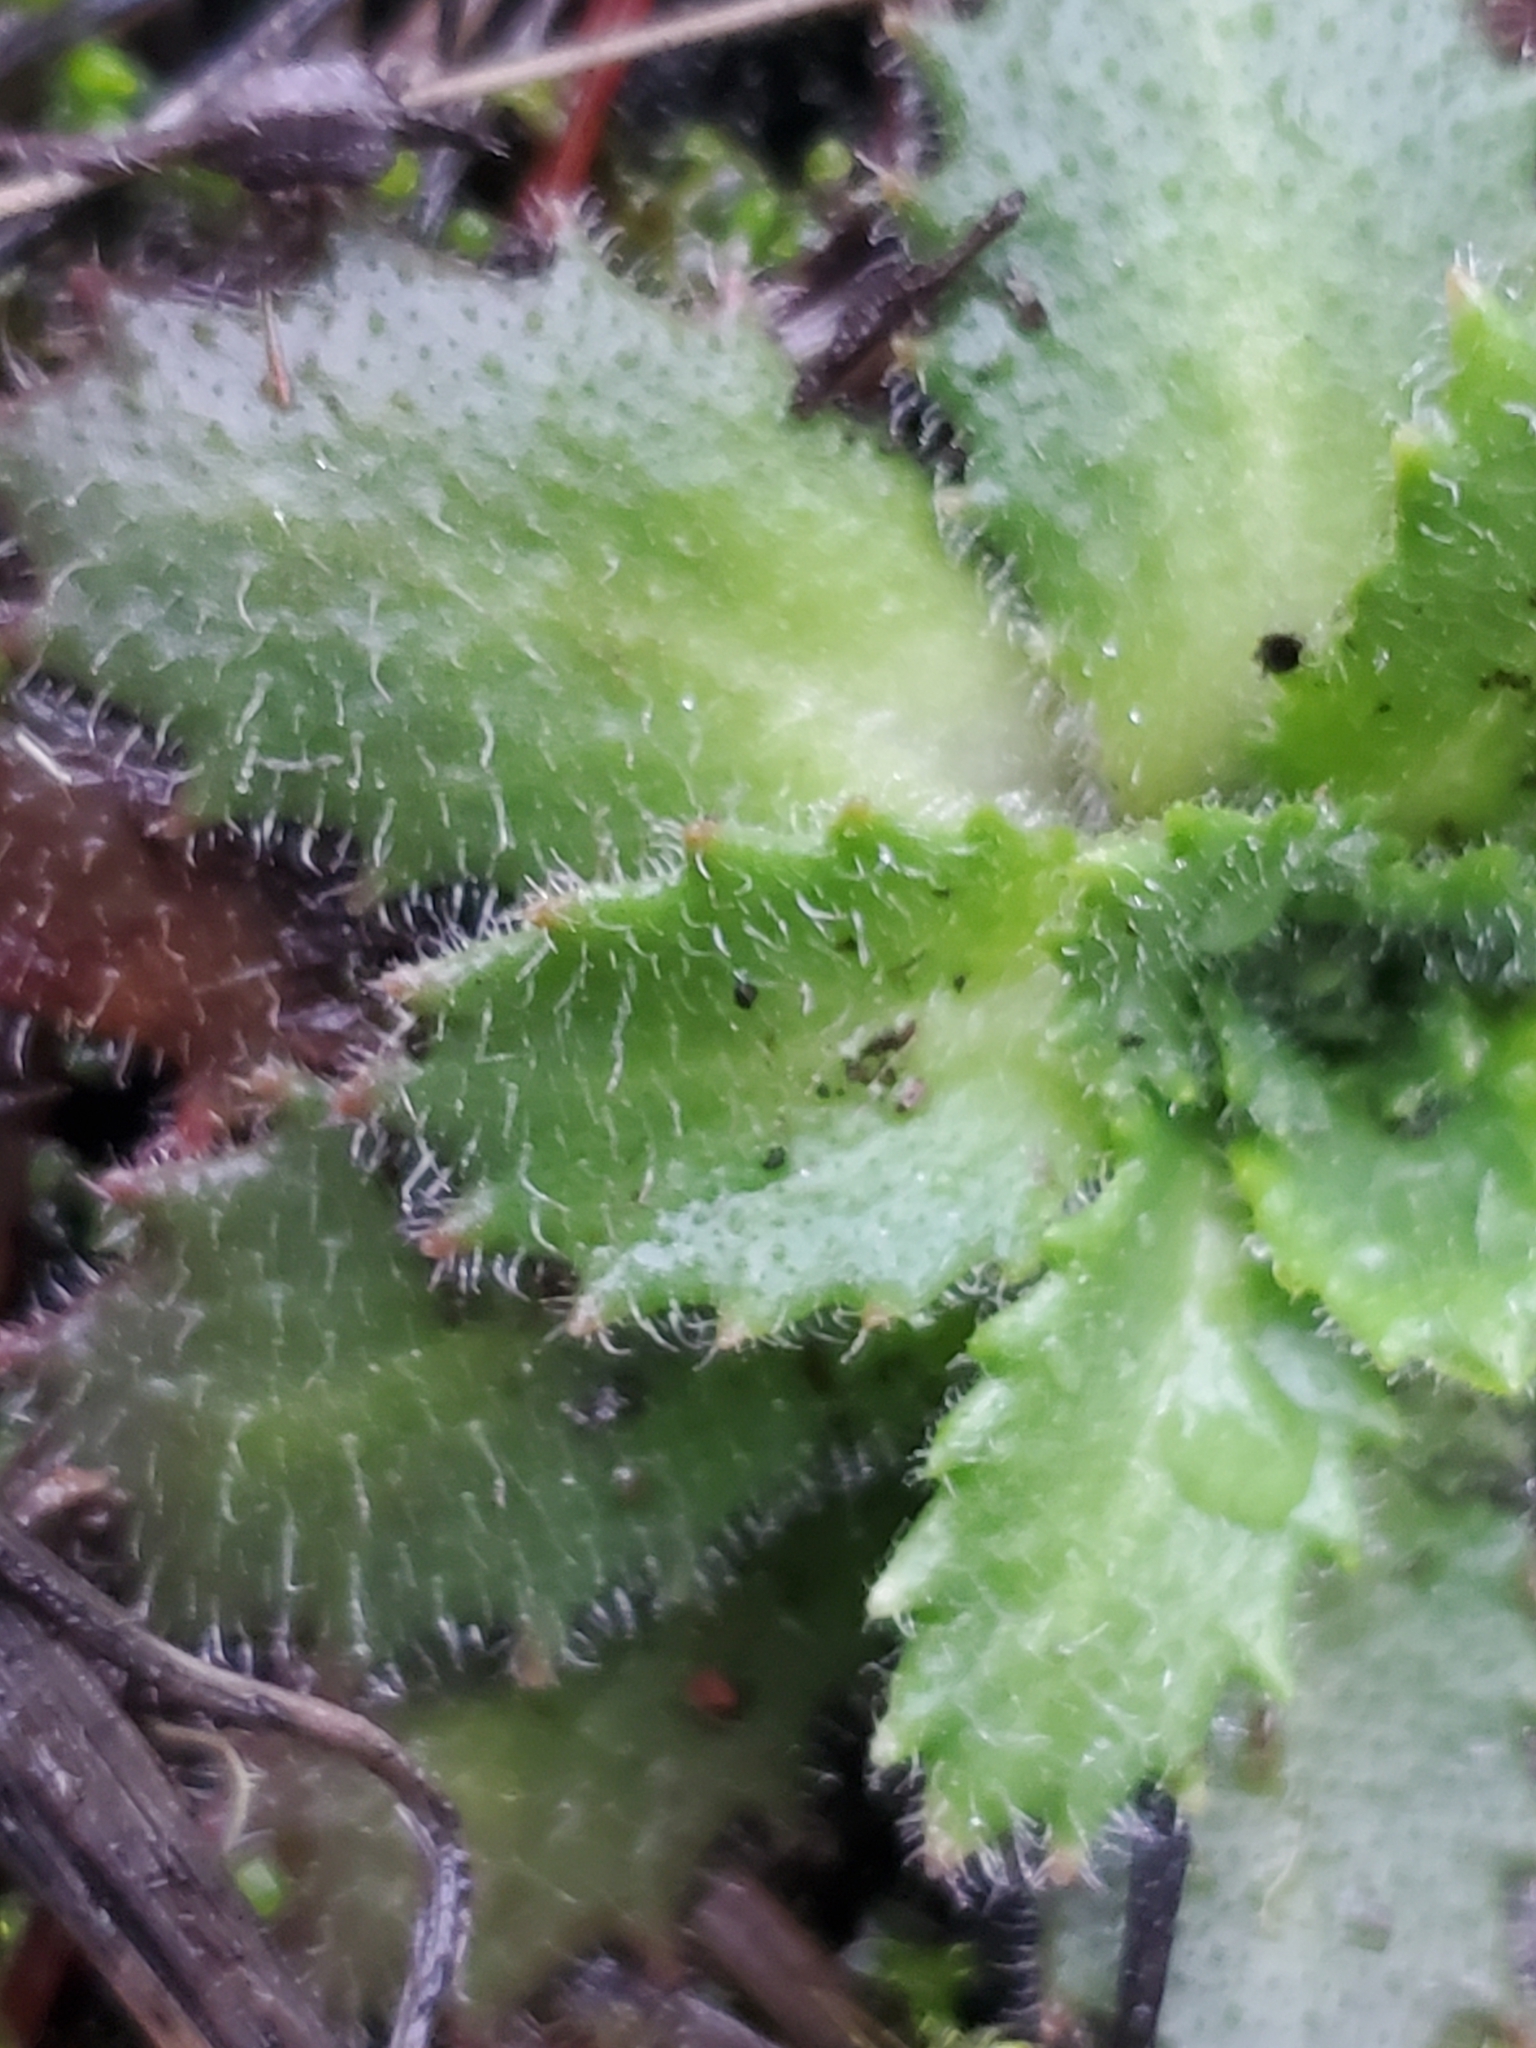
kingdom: Plantae
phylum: Tracheophyta
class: Magnoliopsida
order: Saxifragales
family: Saxifragaceae
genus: Micranthes
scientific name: Micranthes ferruginea
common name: Rusty saxifrage
